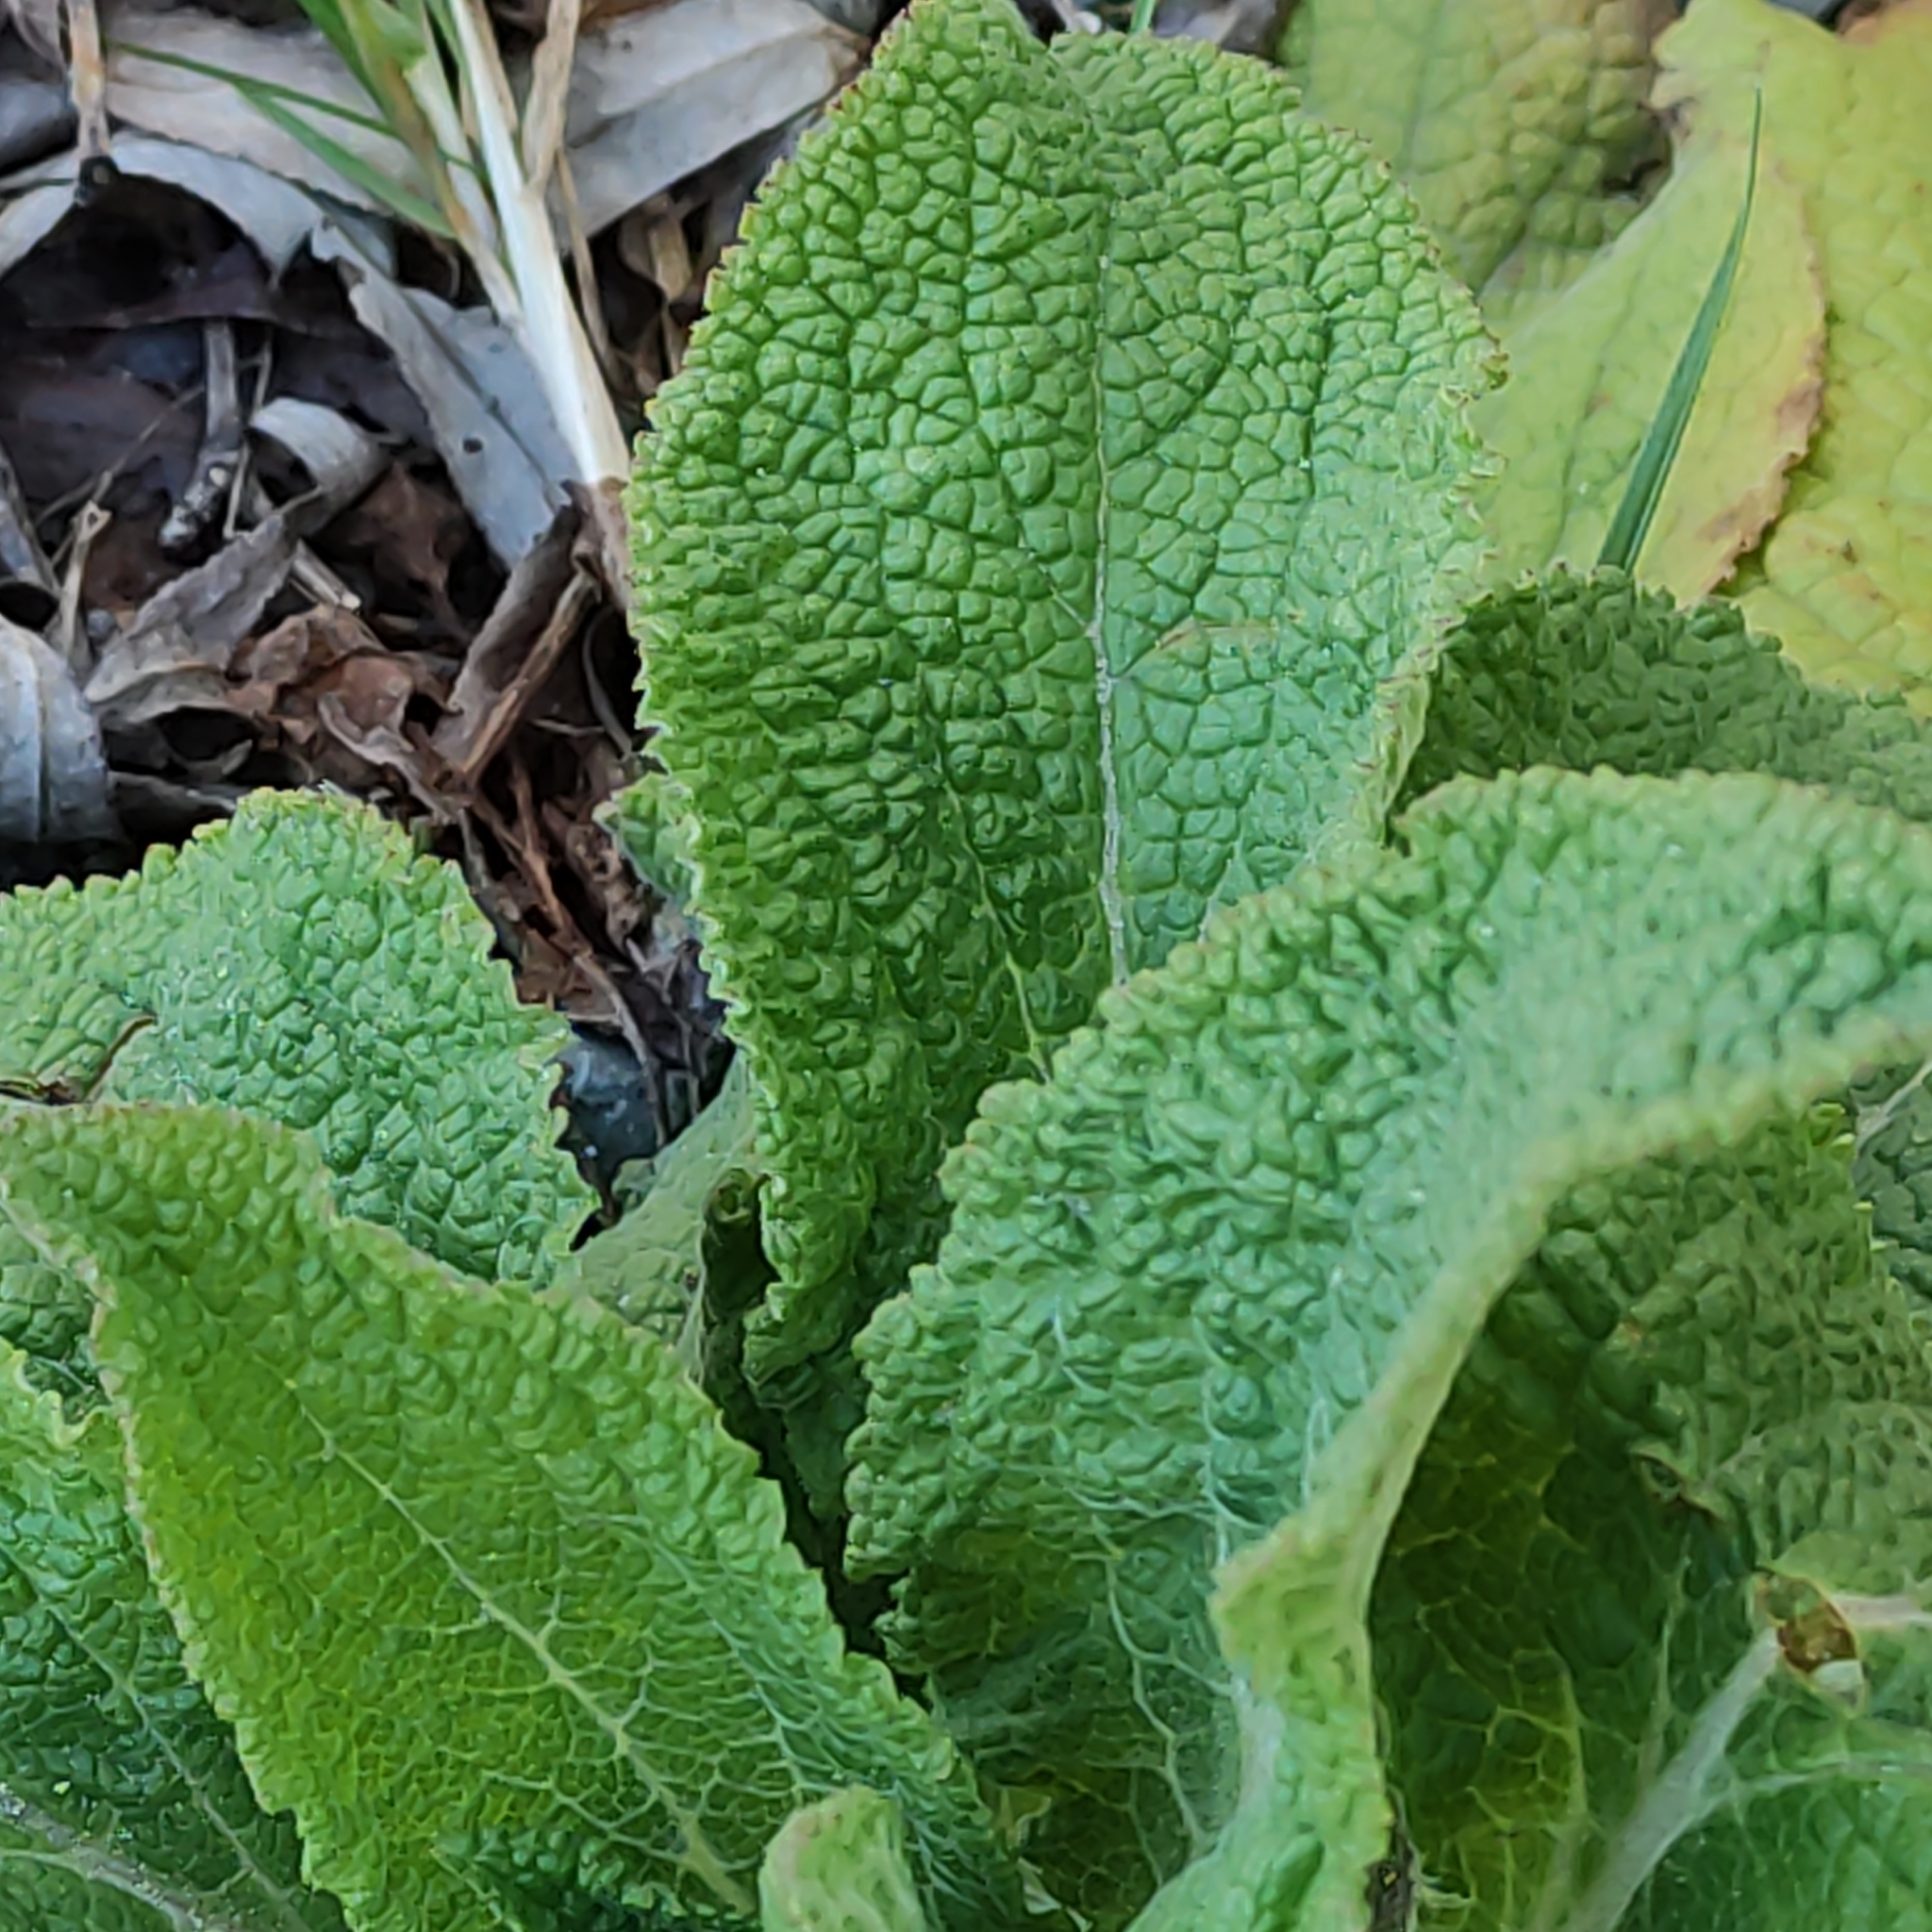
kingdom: Plantae
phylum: Tracheophyta
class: Magnoliopsida
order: Lamiales
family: Plantaginaceae
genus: Digitalis
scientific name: Digitalis purpurea
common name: Foxglove
